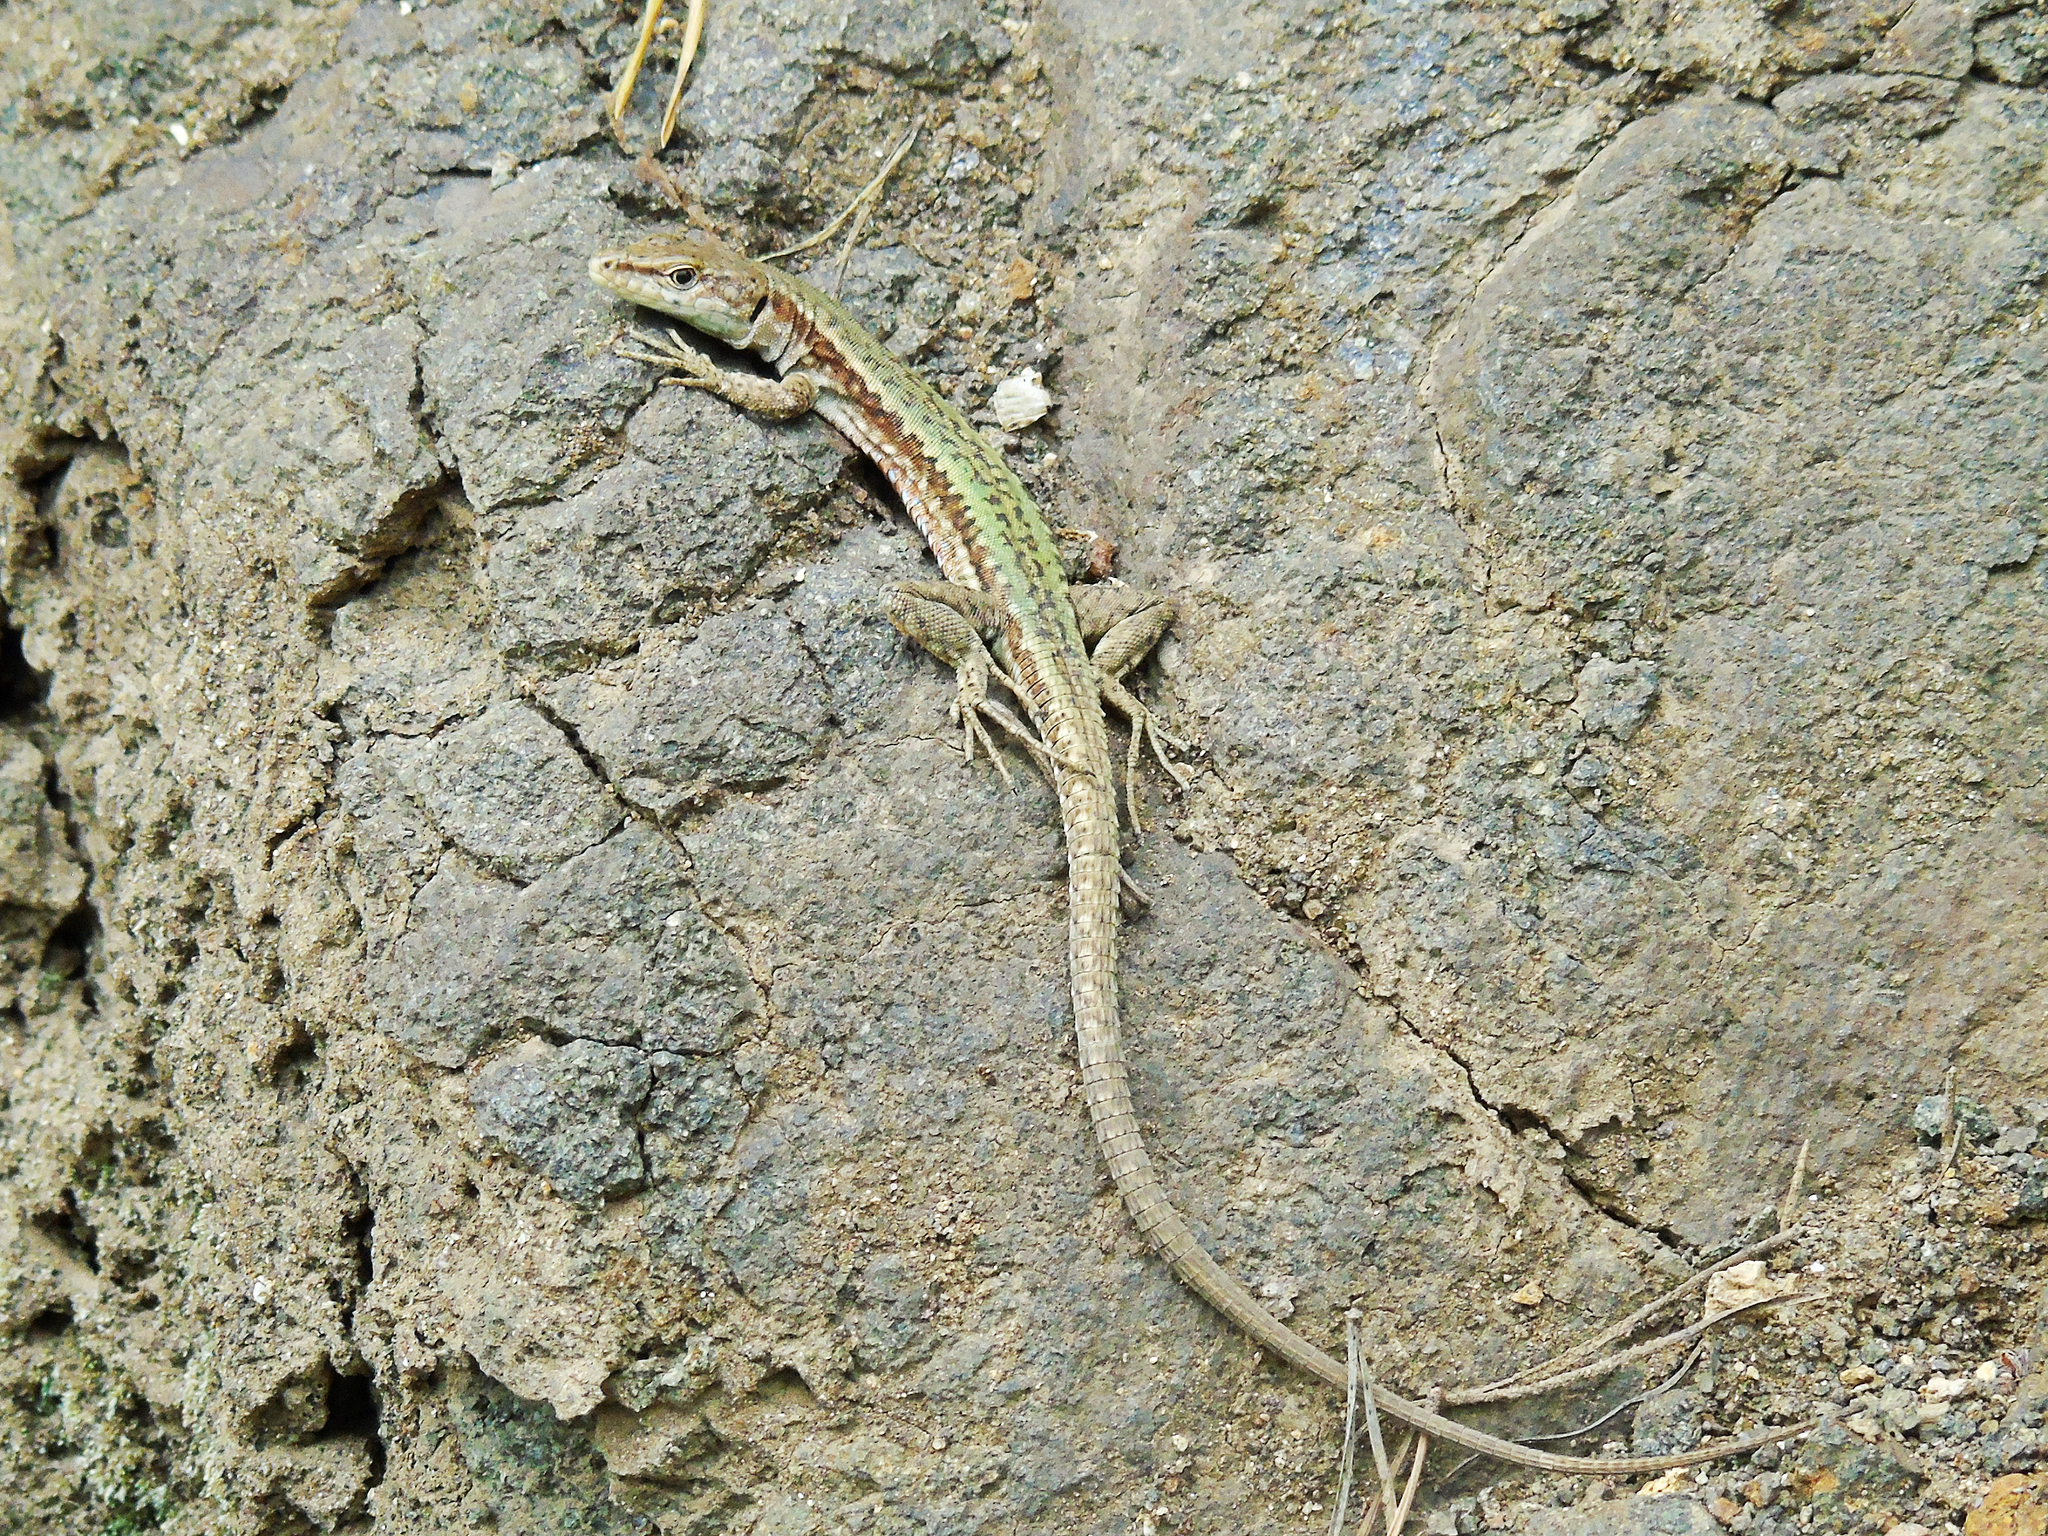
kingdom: Animalia
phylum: Chordata
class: Squamata
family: Lacertidae
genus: Darevskia
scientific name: Darevskia
